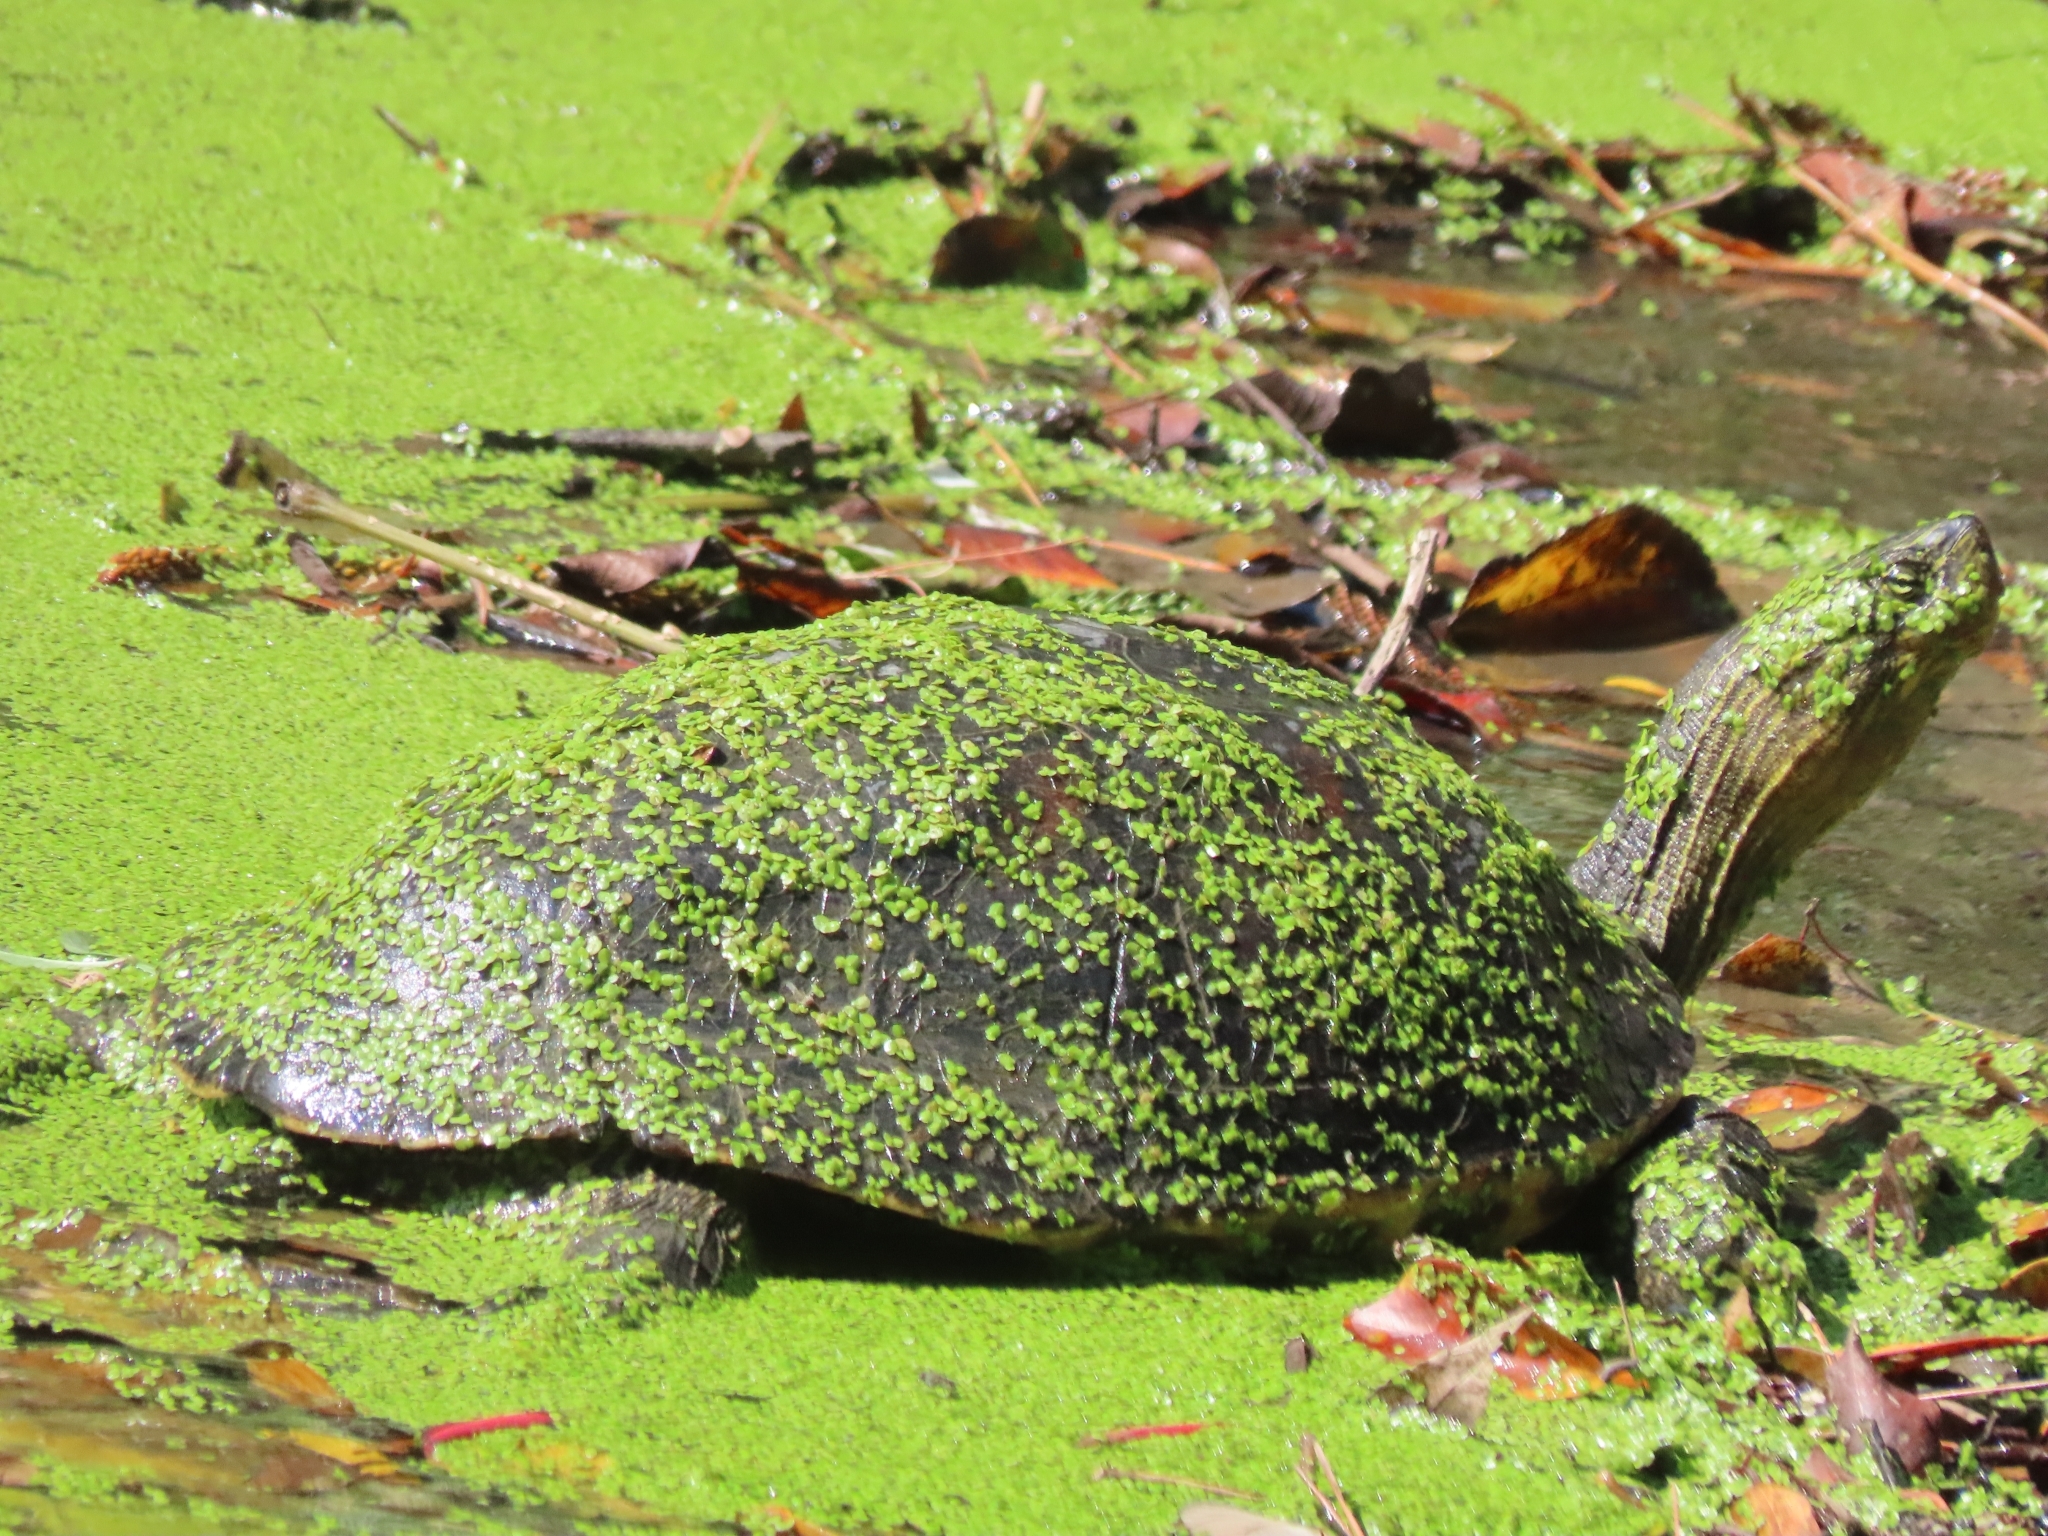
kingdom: Animalia
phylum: Chordata
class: Testudines
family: Geoemydidae
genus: Mauremys
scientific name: Mauremys sinensis
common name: Chinese stripe-necked turtle
